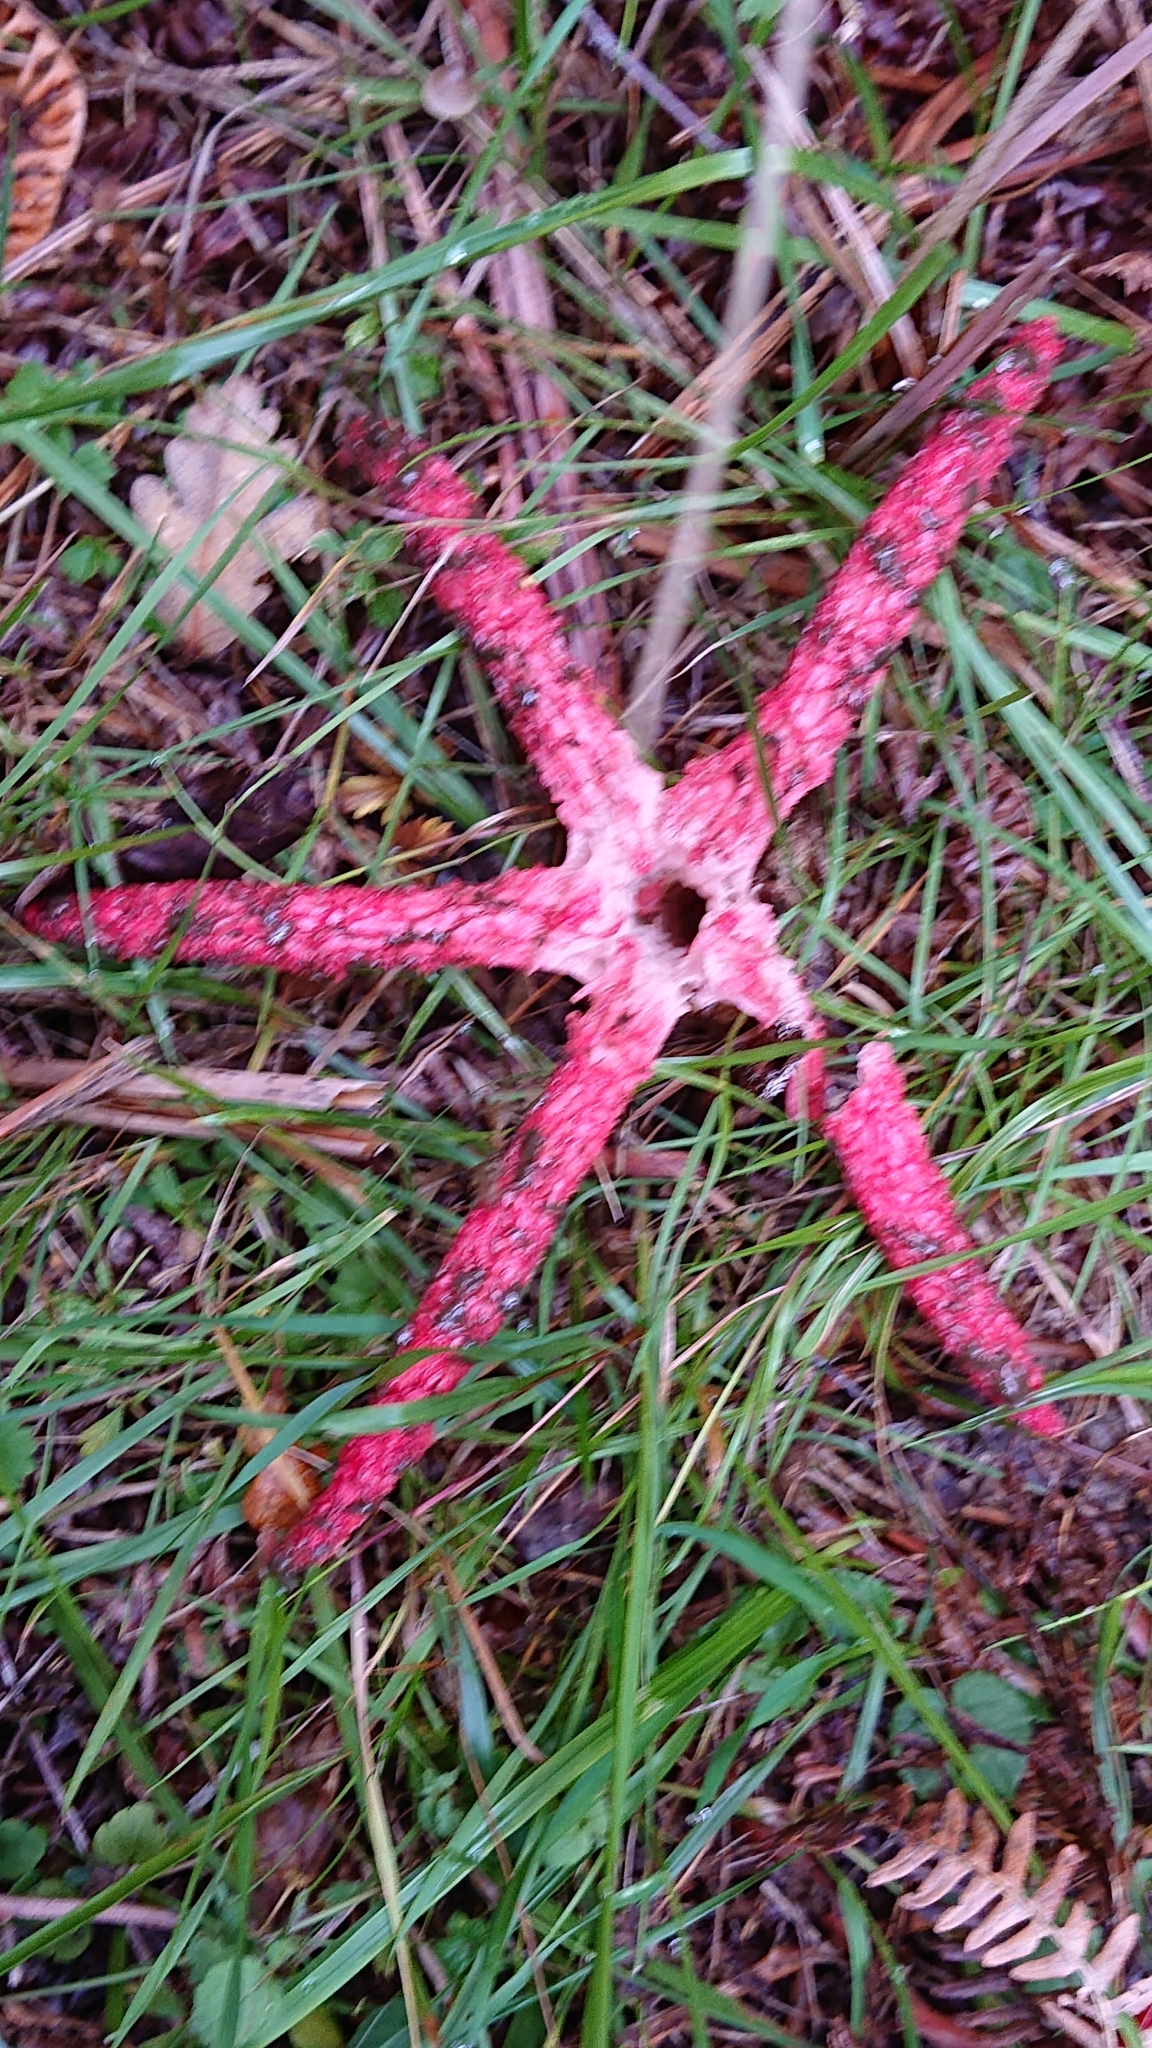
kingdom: Fungi
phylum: Basidiomycota
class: Agaricomycetes
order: Phallales
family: Phallaceae
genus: Clathrus
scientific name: Clathrus archeri
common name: Devil's fingers
